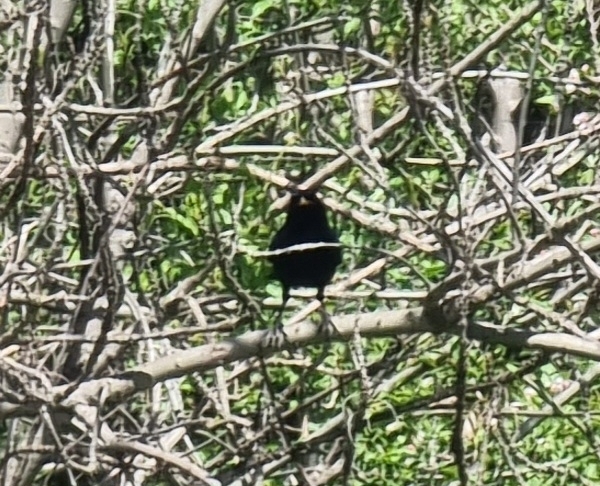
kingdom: Animalia
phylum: Chordata
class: Aves
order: Passeriformes
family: Turdidae
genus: Turdus
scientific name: Turdus merula
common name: Common blackbird
